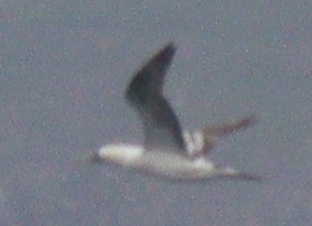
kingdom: Animalia
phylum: Chordata
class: Aves
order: Suliformes
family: Sulidae
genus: Morus
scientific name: Morus bassanus
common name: Northern gannet
